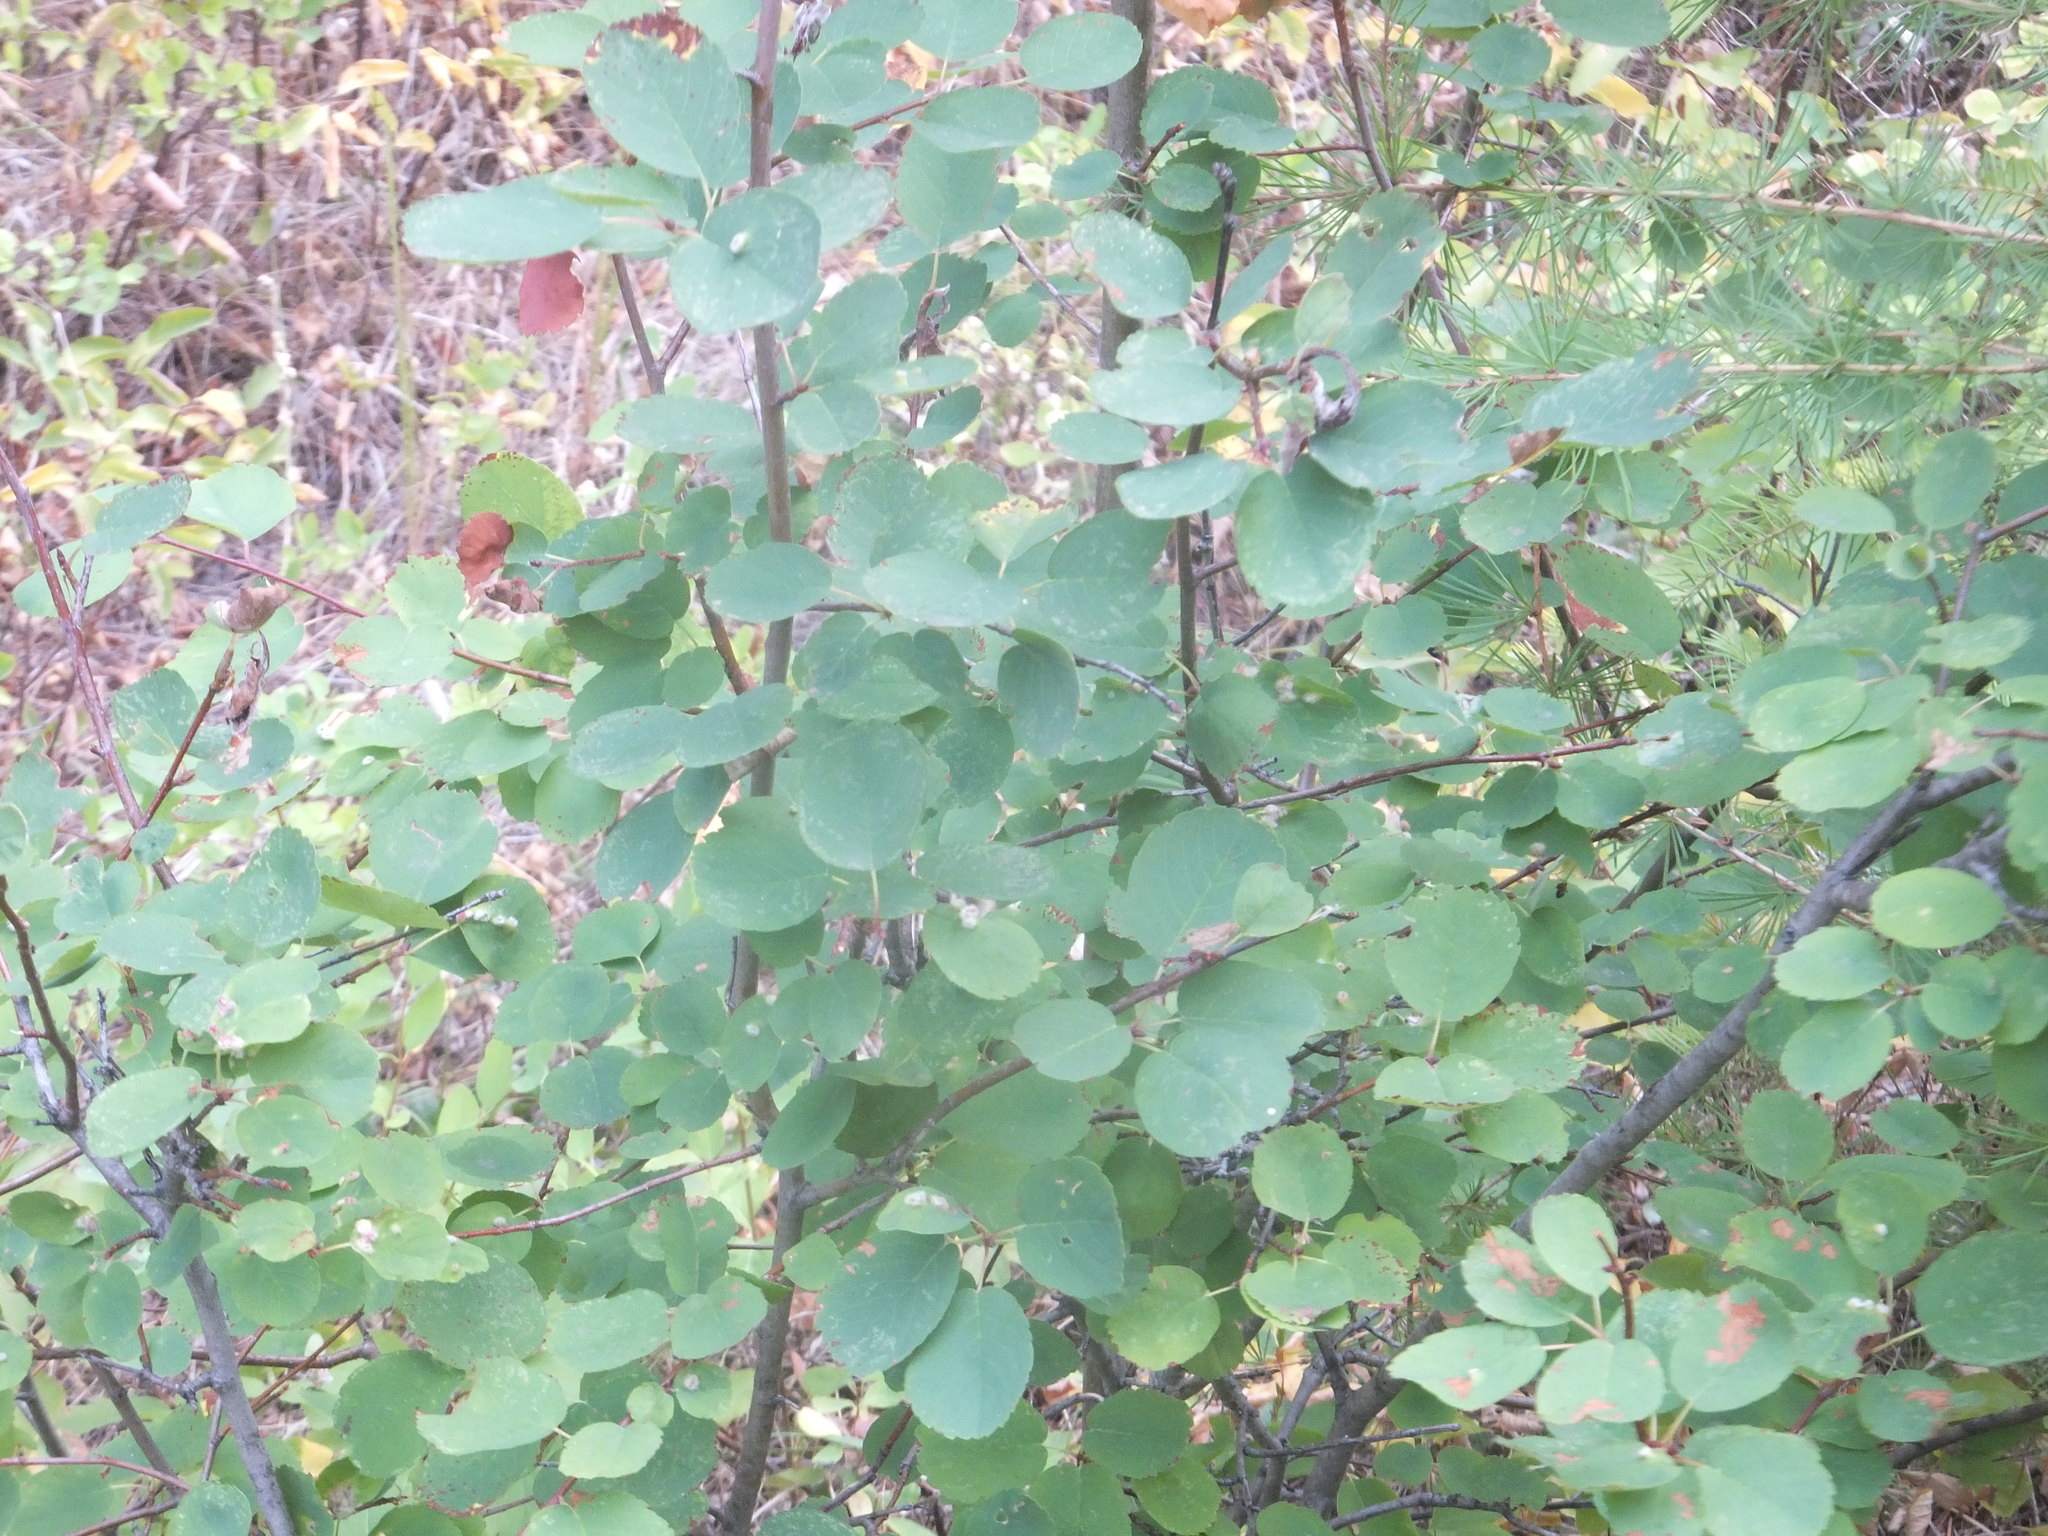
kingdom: Plantae
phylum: Tracheophyta
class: Magnoliopsida
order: Rosales
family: Rosaceae
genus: Amelanchier
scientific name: Amelanchier alnifolia
